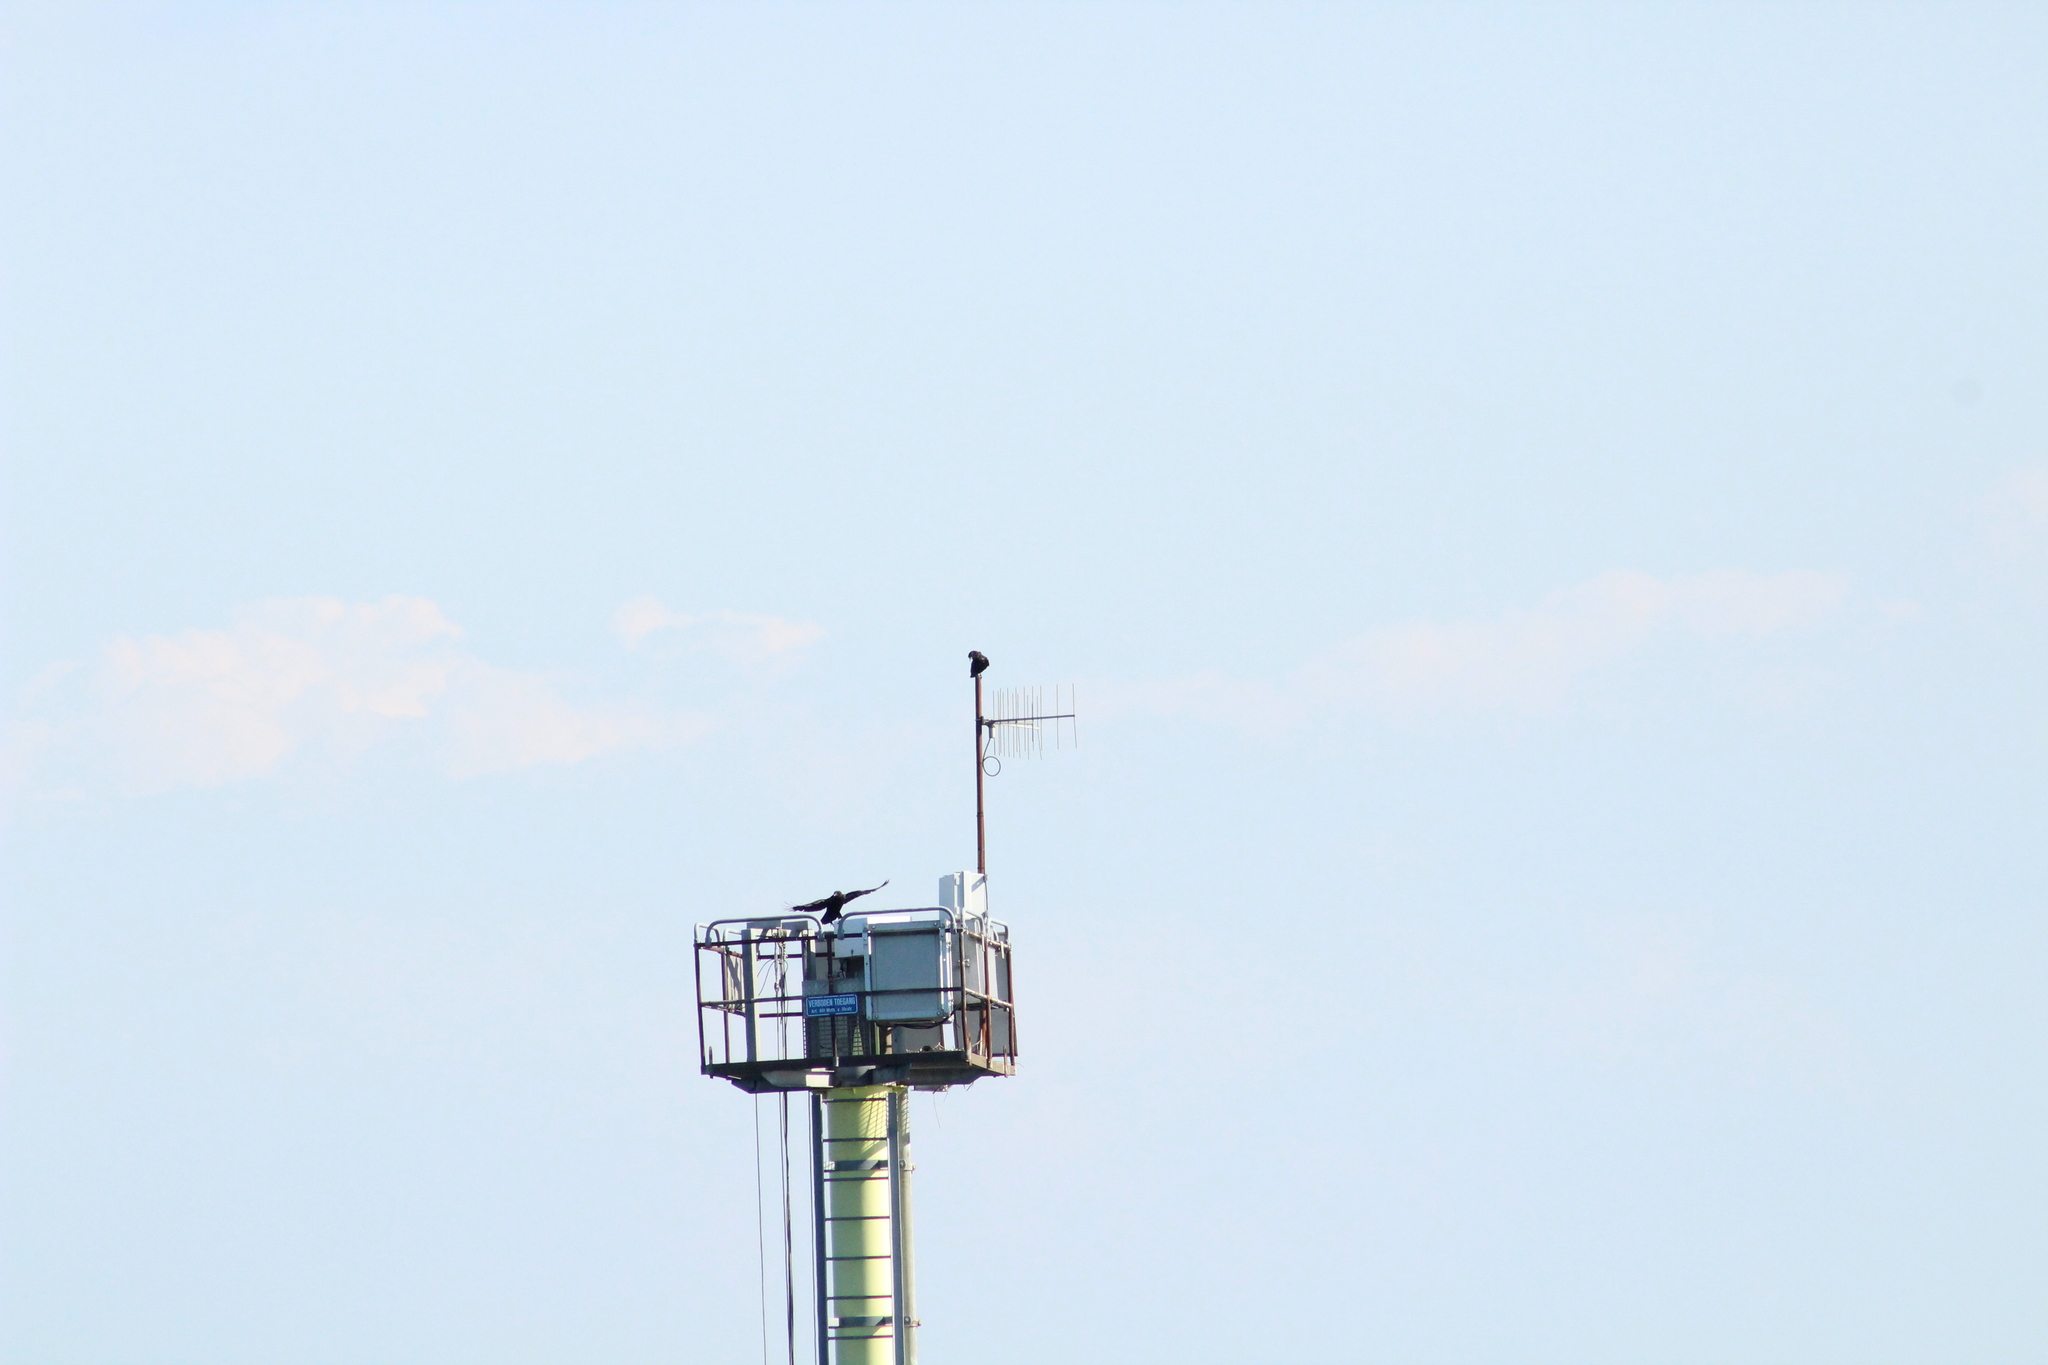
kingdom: Animalia
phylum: Chordata
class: Aves
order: Passeriformes
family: Corvidae
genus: Corvus
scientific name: Corvus corone
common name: Carrion crow
